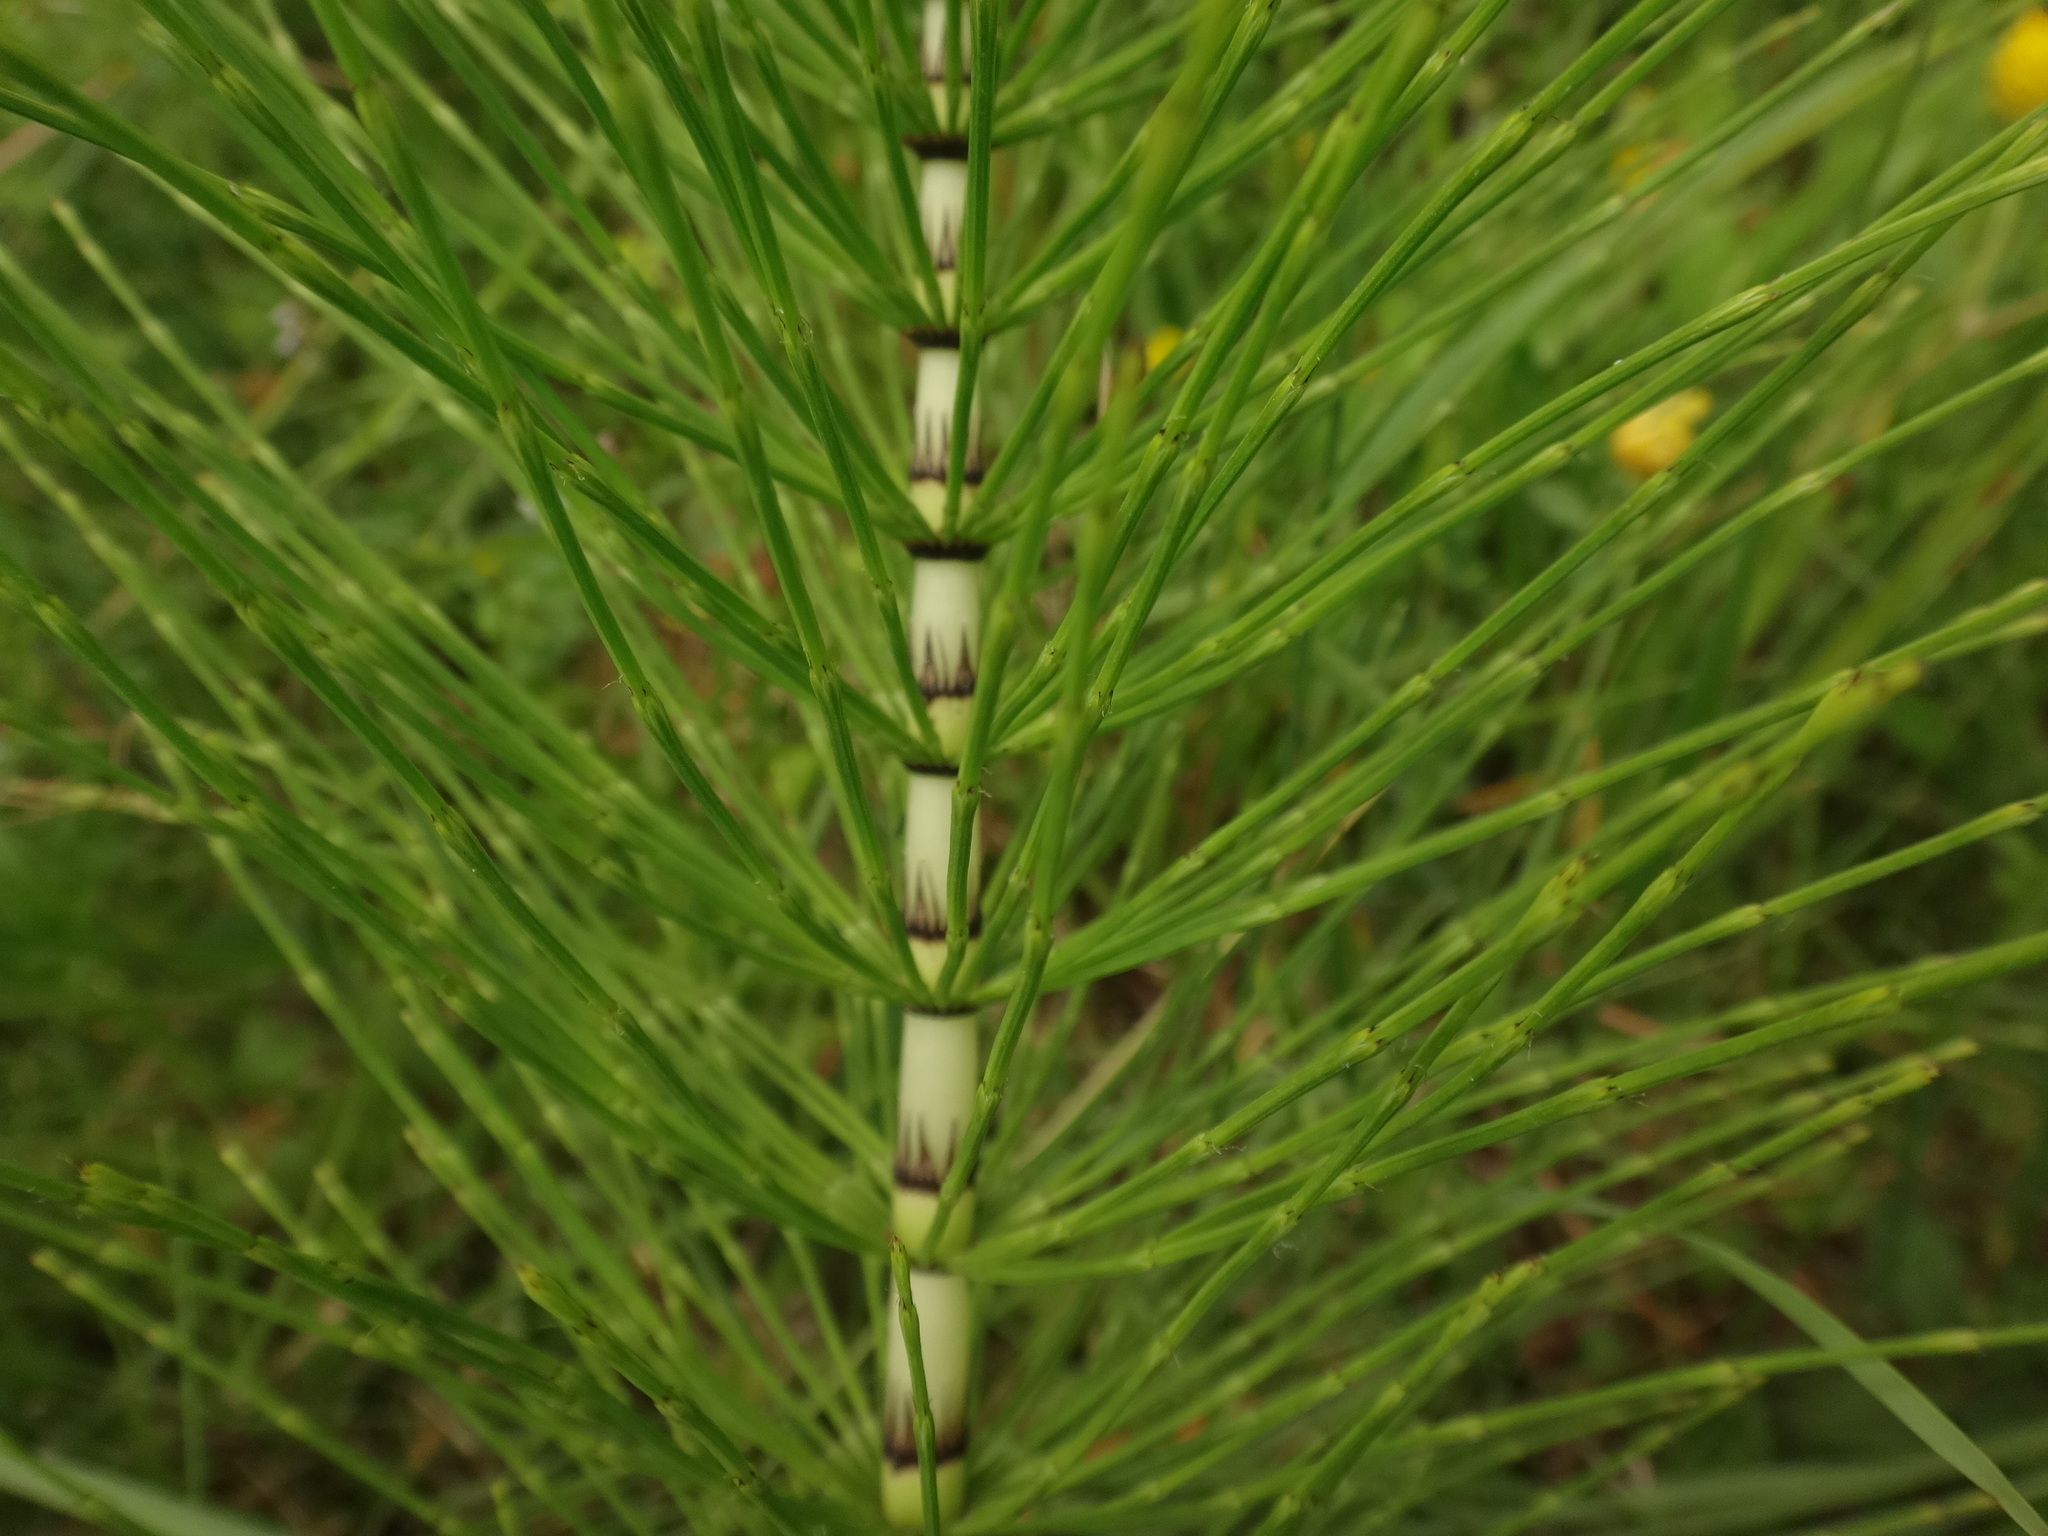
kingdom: Plantae
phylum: Tracheophyta
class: Polypodiopsida
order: Equisetales
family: Equisetaceae
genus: Equisetum
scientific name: Equisetum telmateia
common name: Great horsetail
